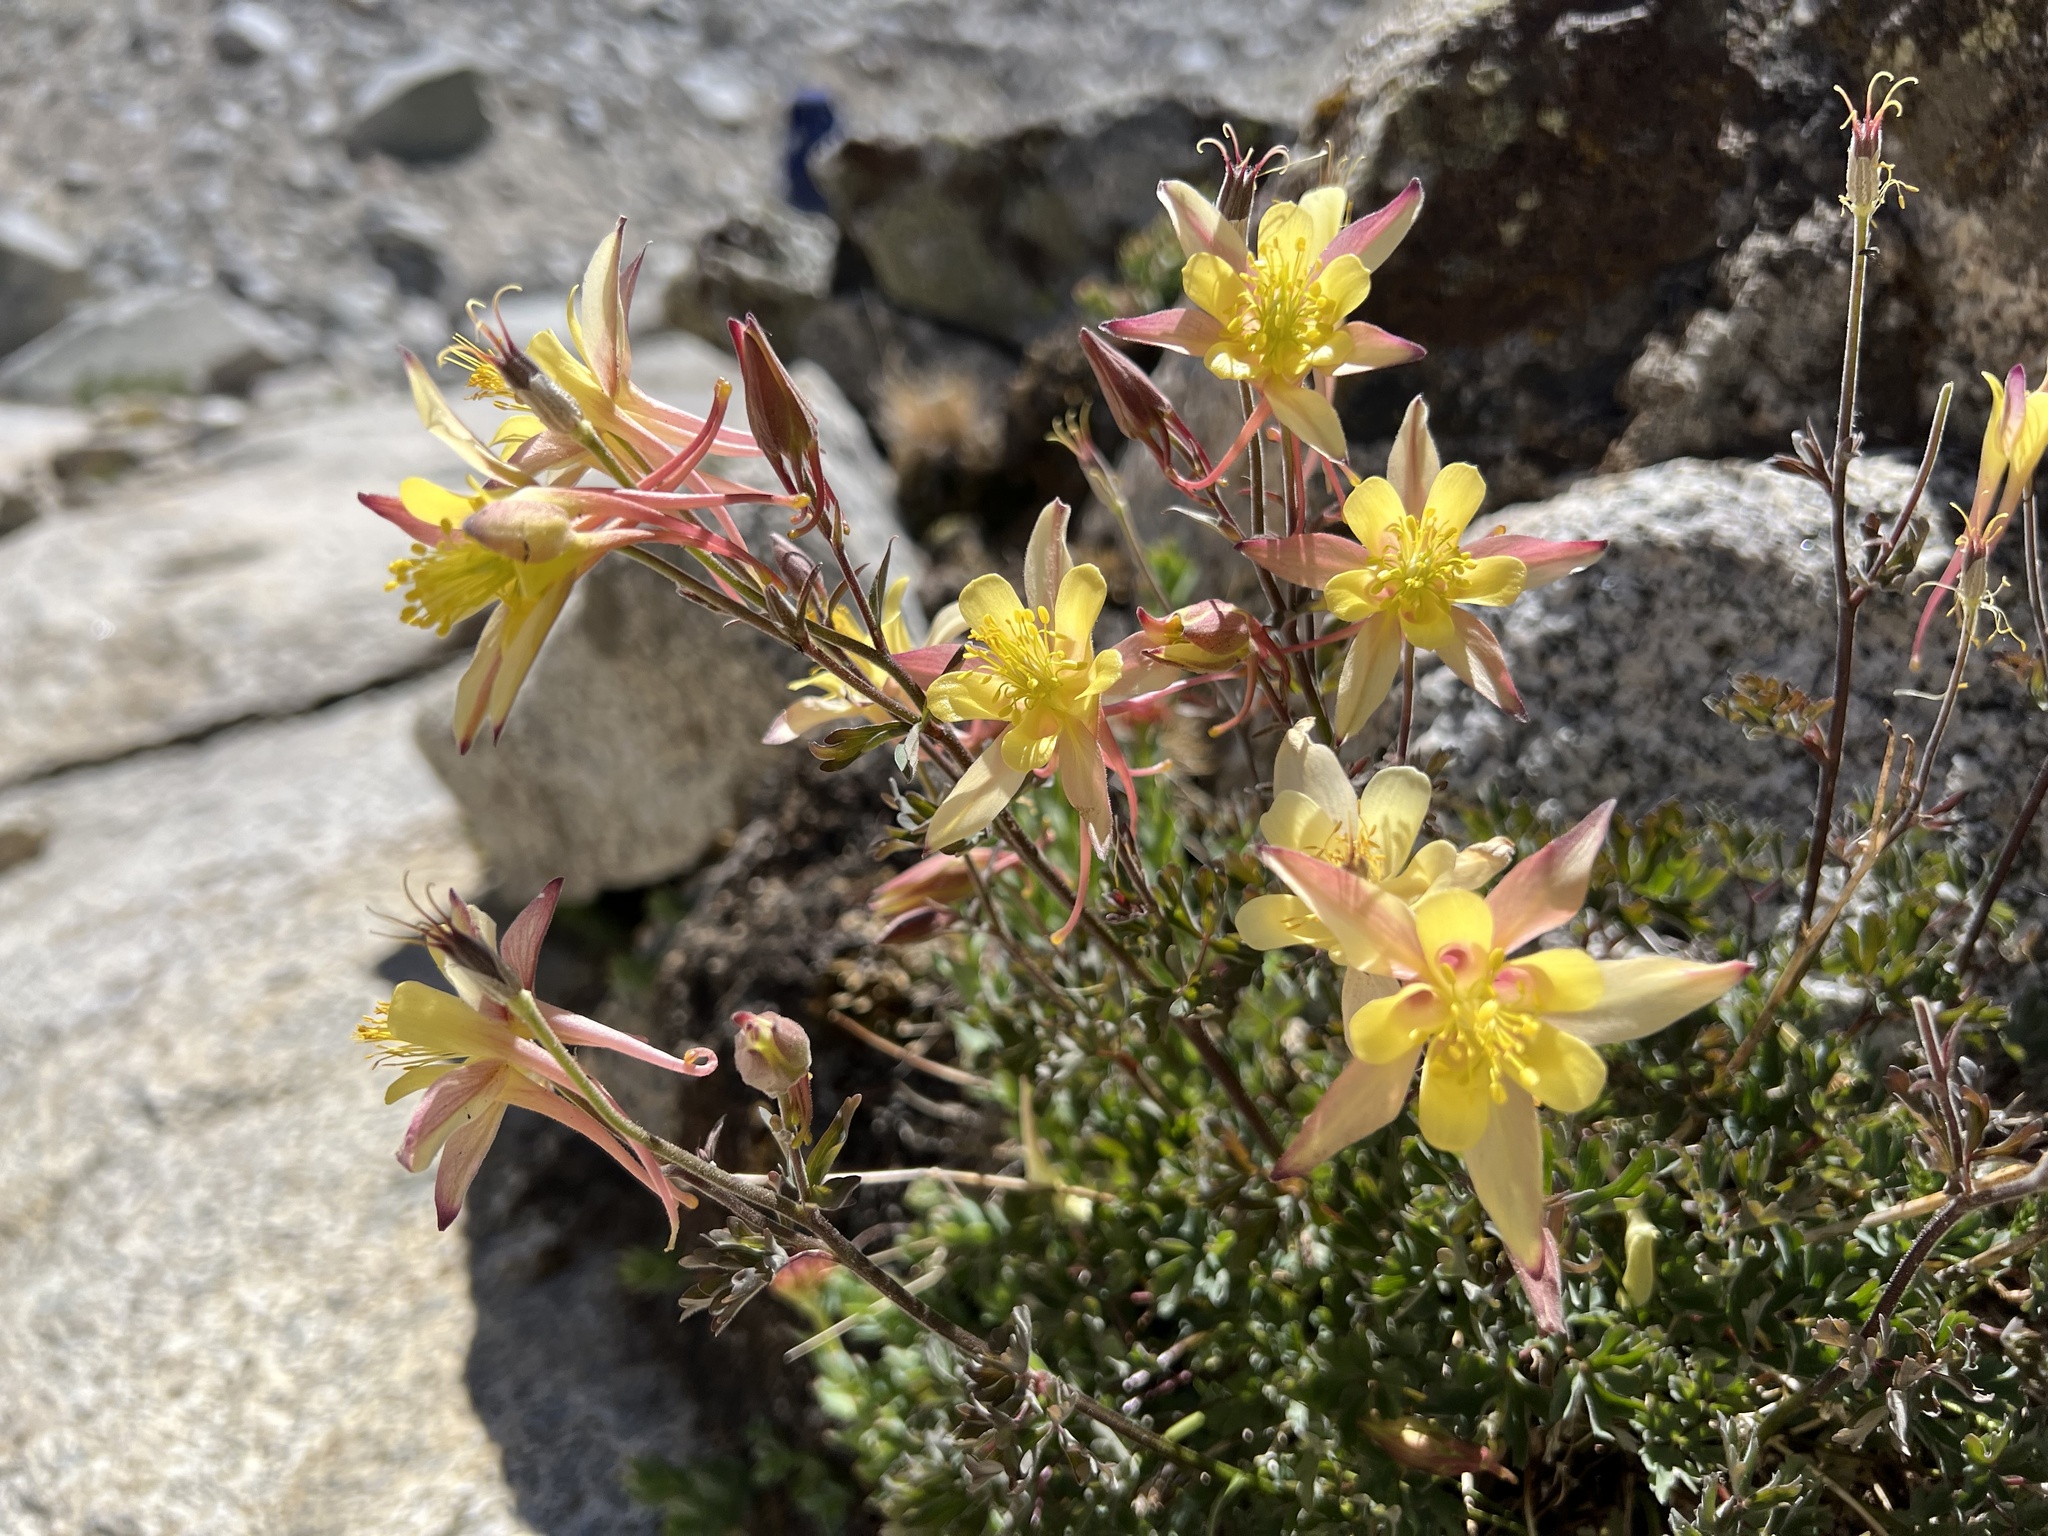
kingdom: Plantae
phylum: Tracheophyta
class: Magnoliopsida
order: Ranunculales
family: Ranunculaceae
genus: Aquilegia
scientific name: Aquilegia pubescens
